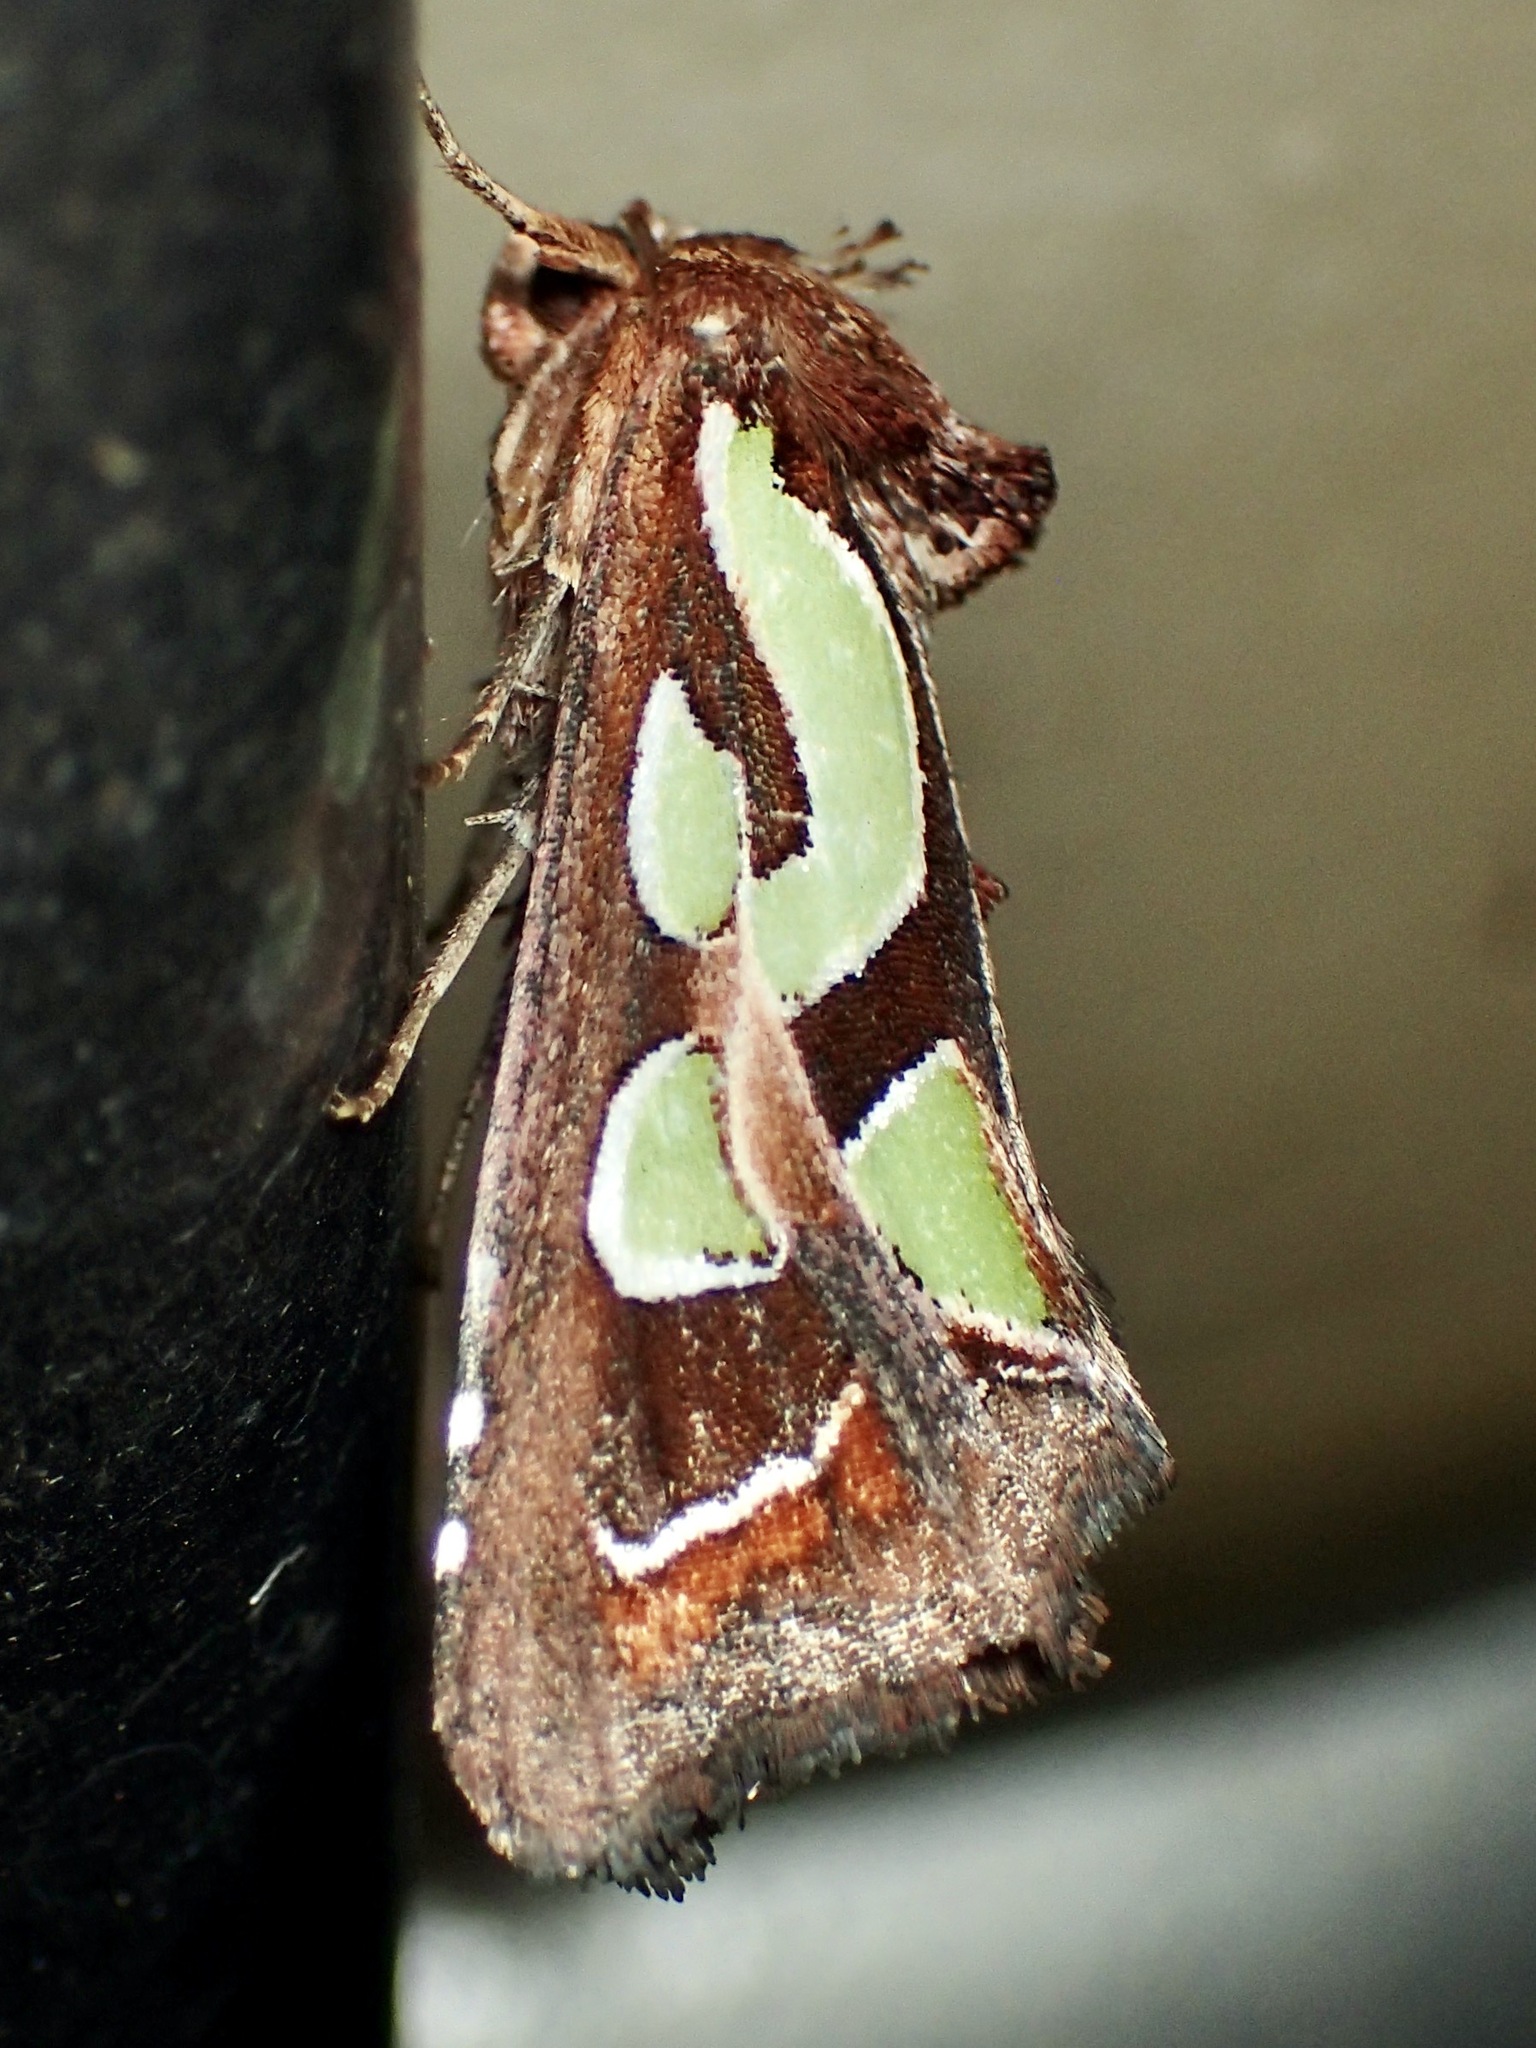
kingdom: Animalia
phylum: Arthropoda
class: Insecta
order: Lepidoptera
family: Noctuidae
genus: Cosmodes
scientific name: Cosmodes elegans
